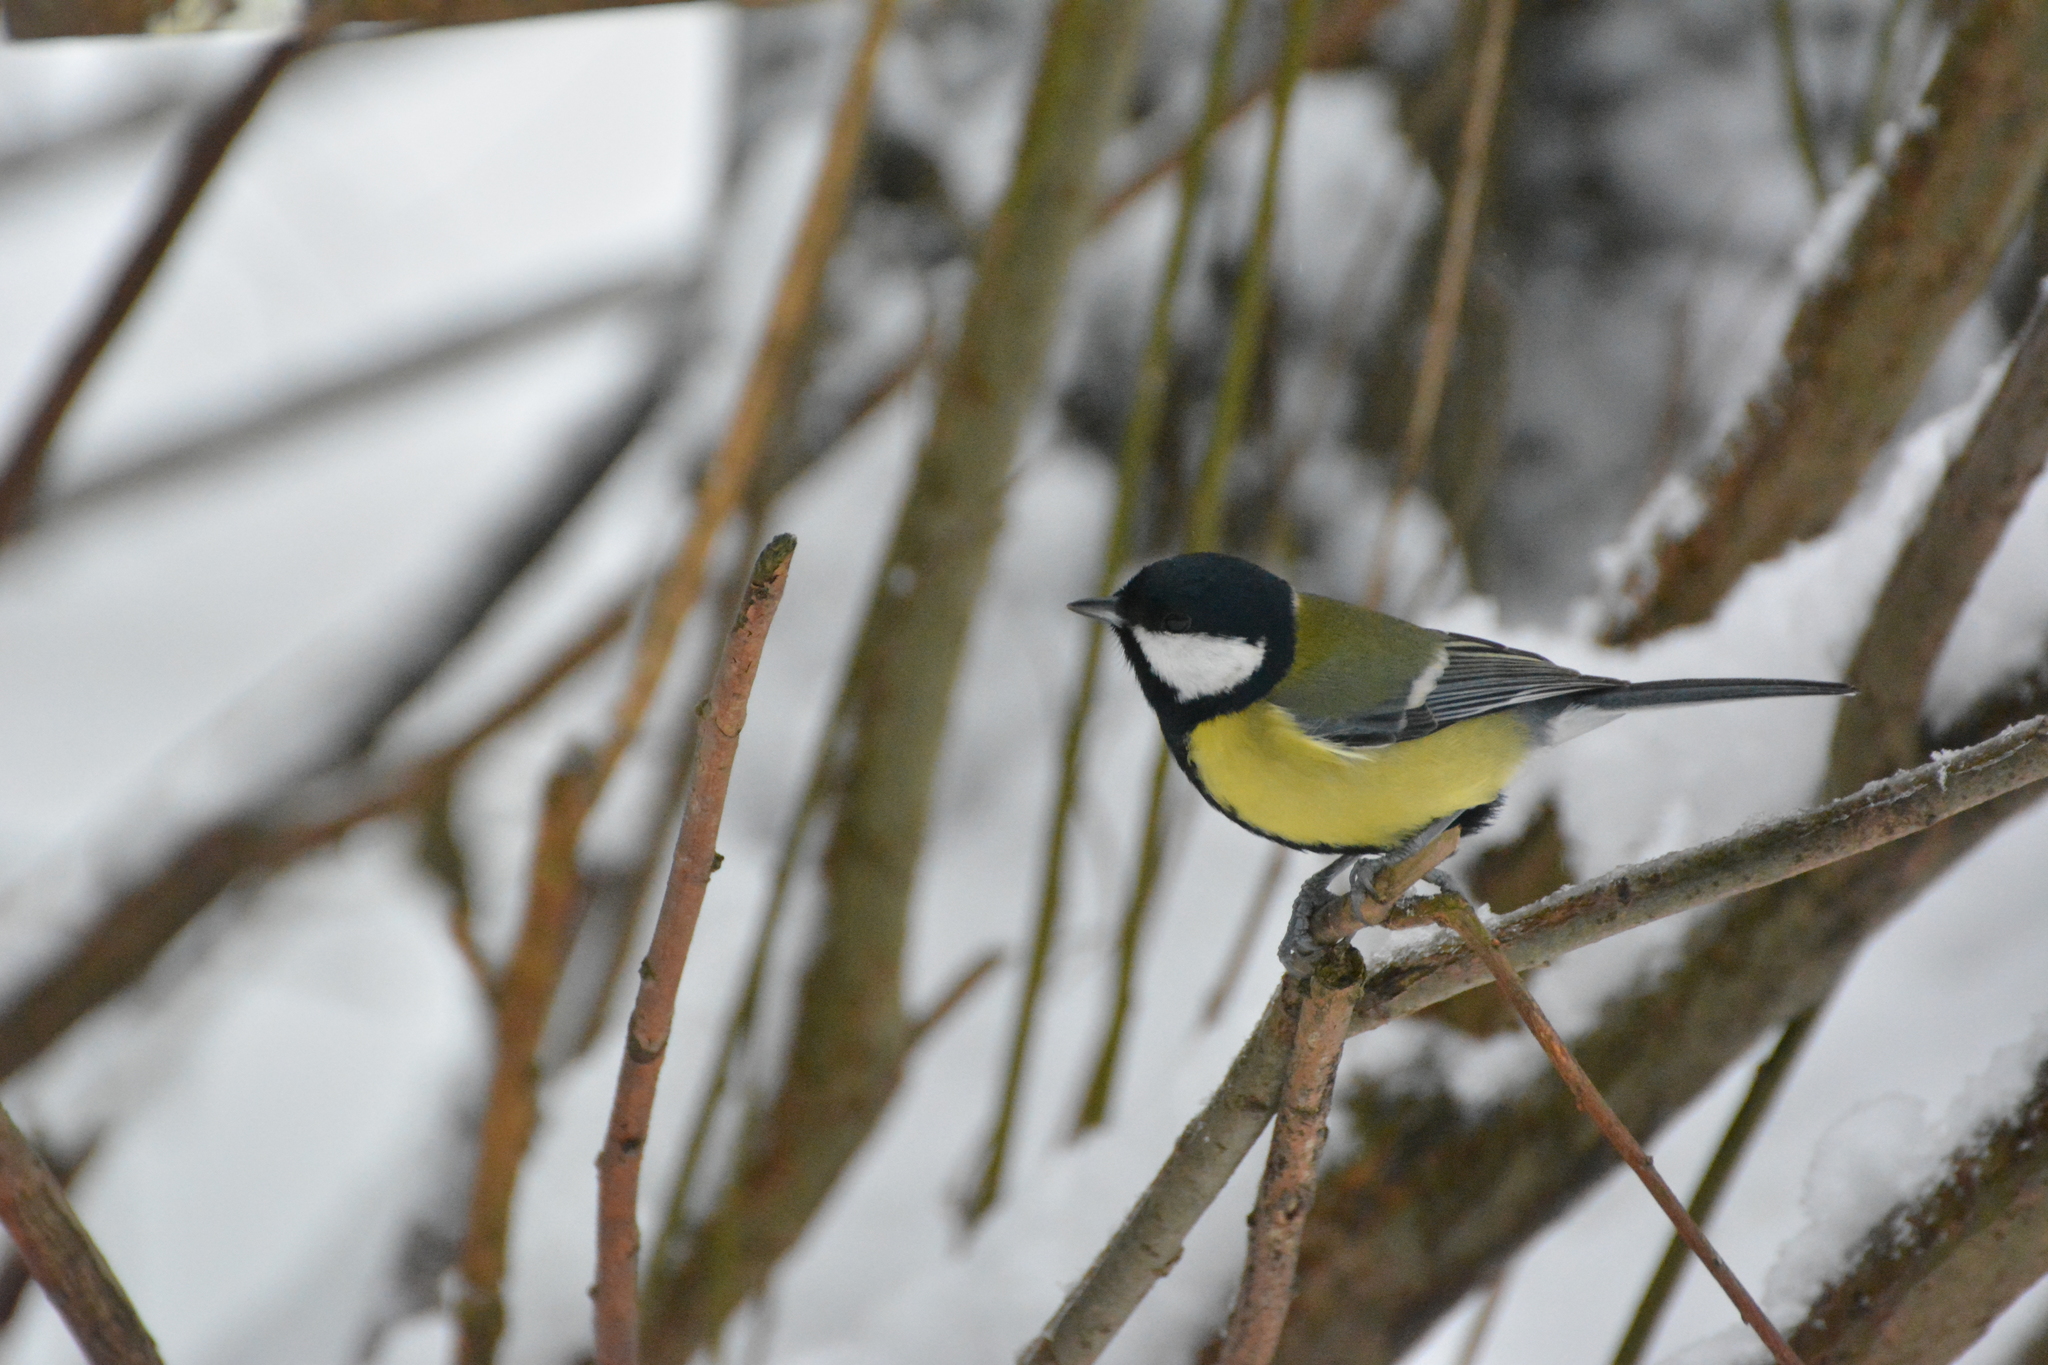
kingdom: Animalia
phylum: Chordata
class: Aves
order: Passeriformes
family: Paridae
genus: Parus
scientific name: Parus major
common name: Great tit
